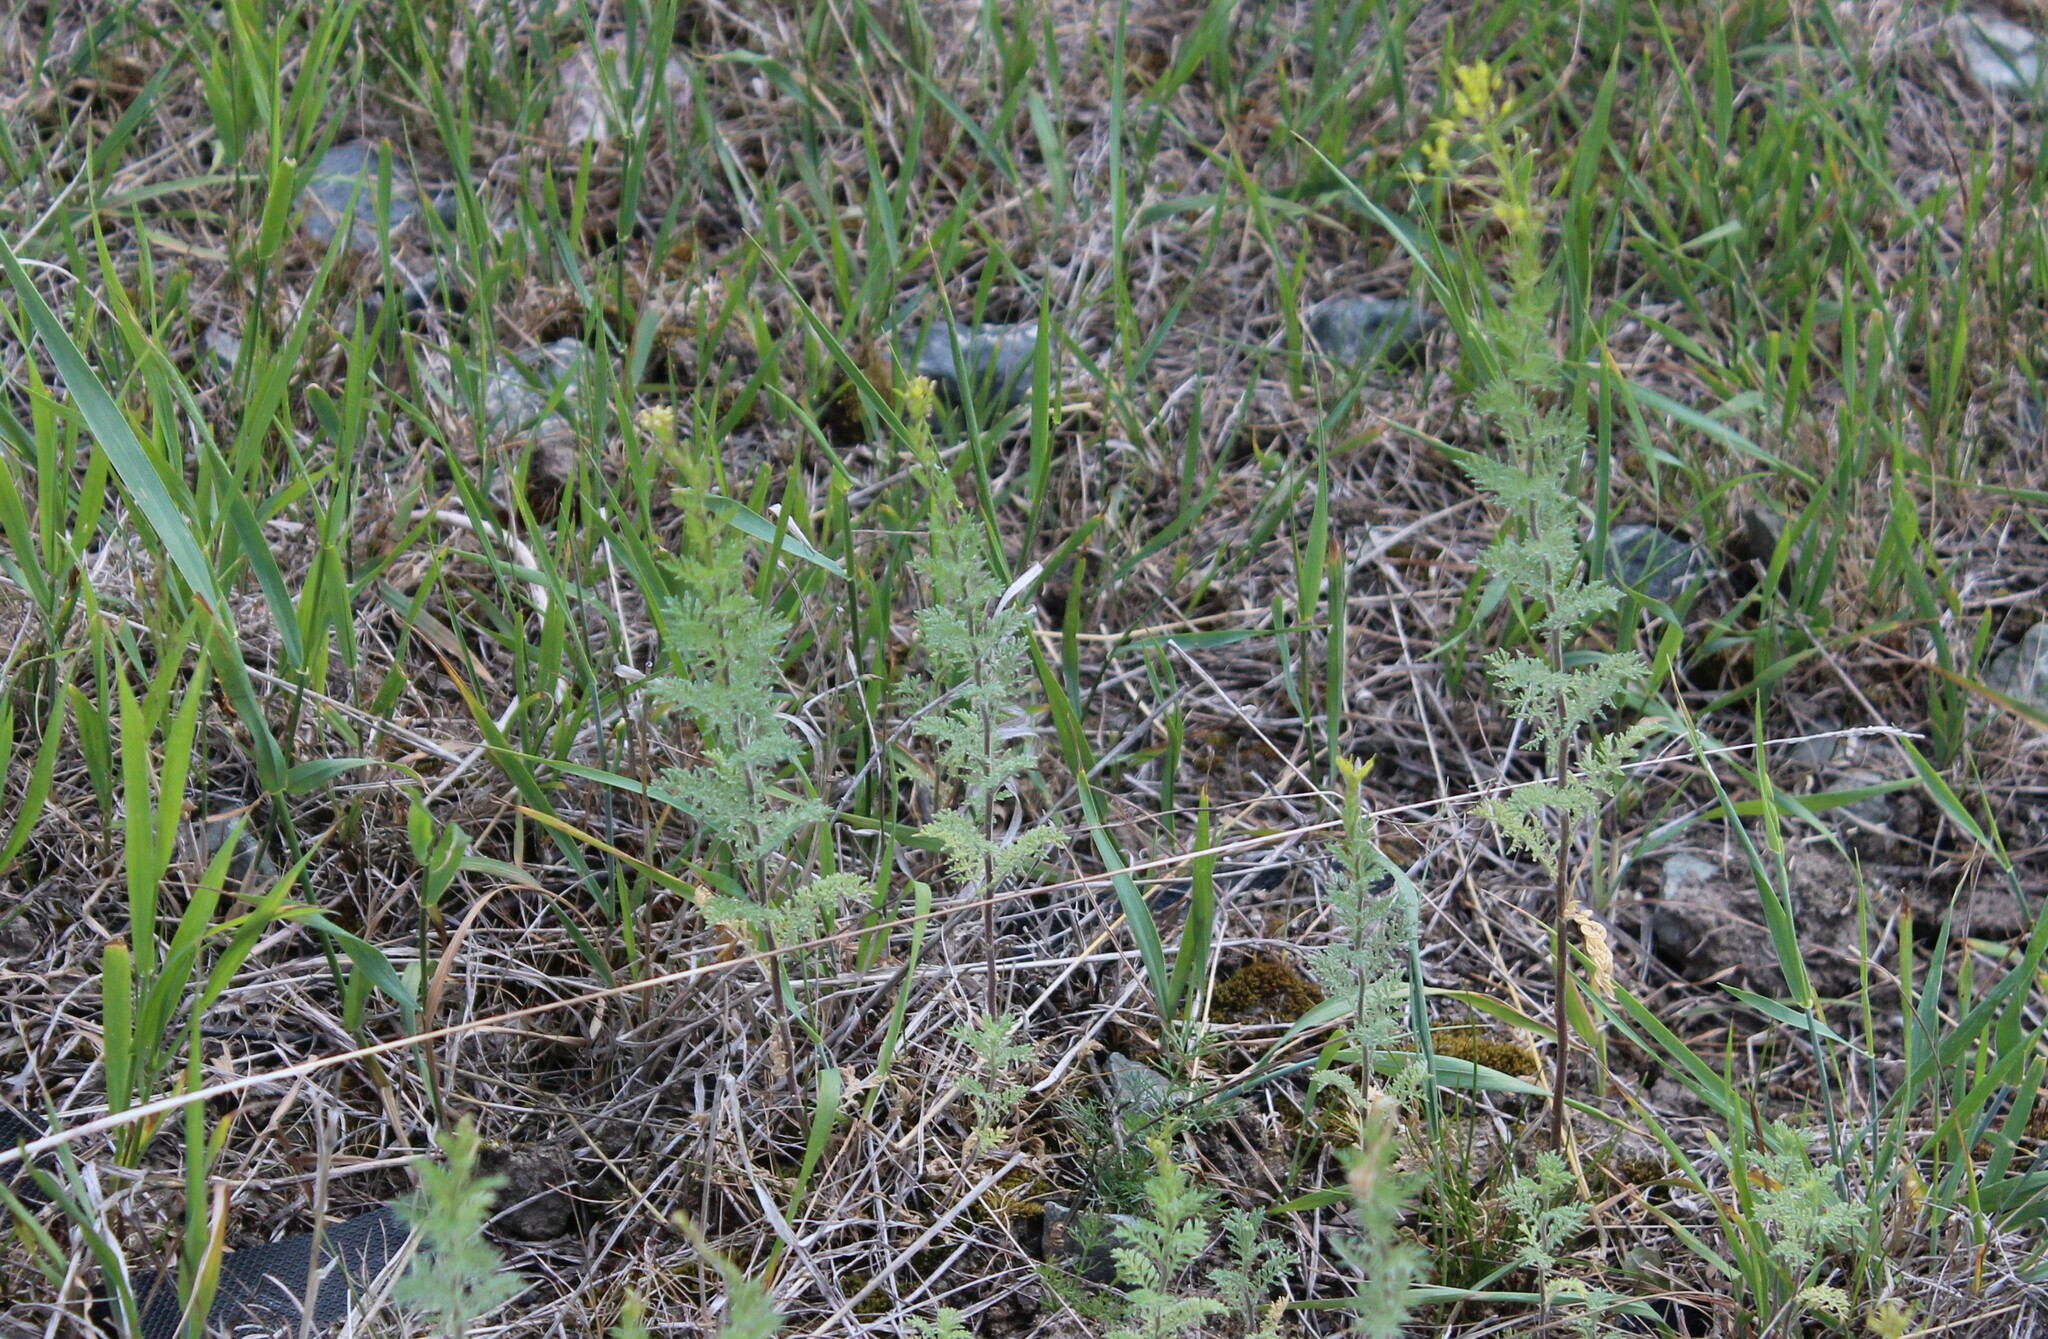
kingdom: Plantae
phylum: Tracheophyta
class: Magnoliopsida
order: Brassicales
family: Brassicaceae
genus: Descurainia
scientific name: Descurainia sophia
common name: Flixweed
